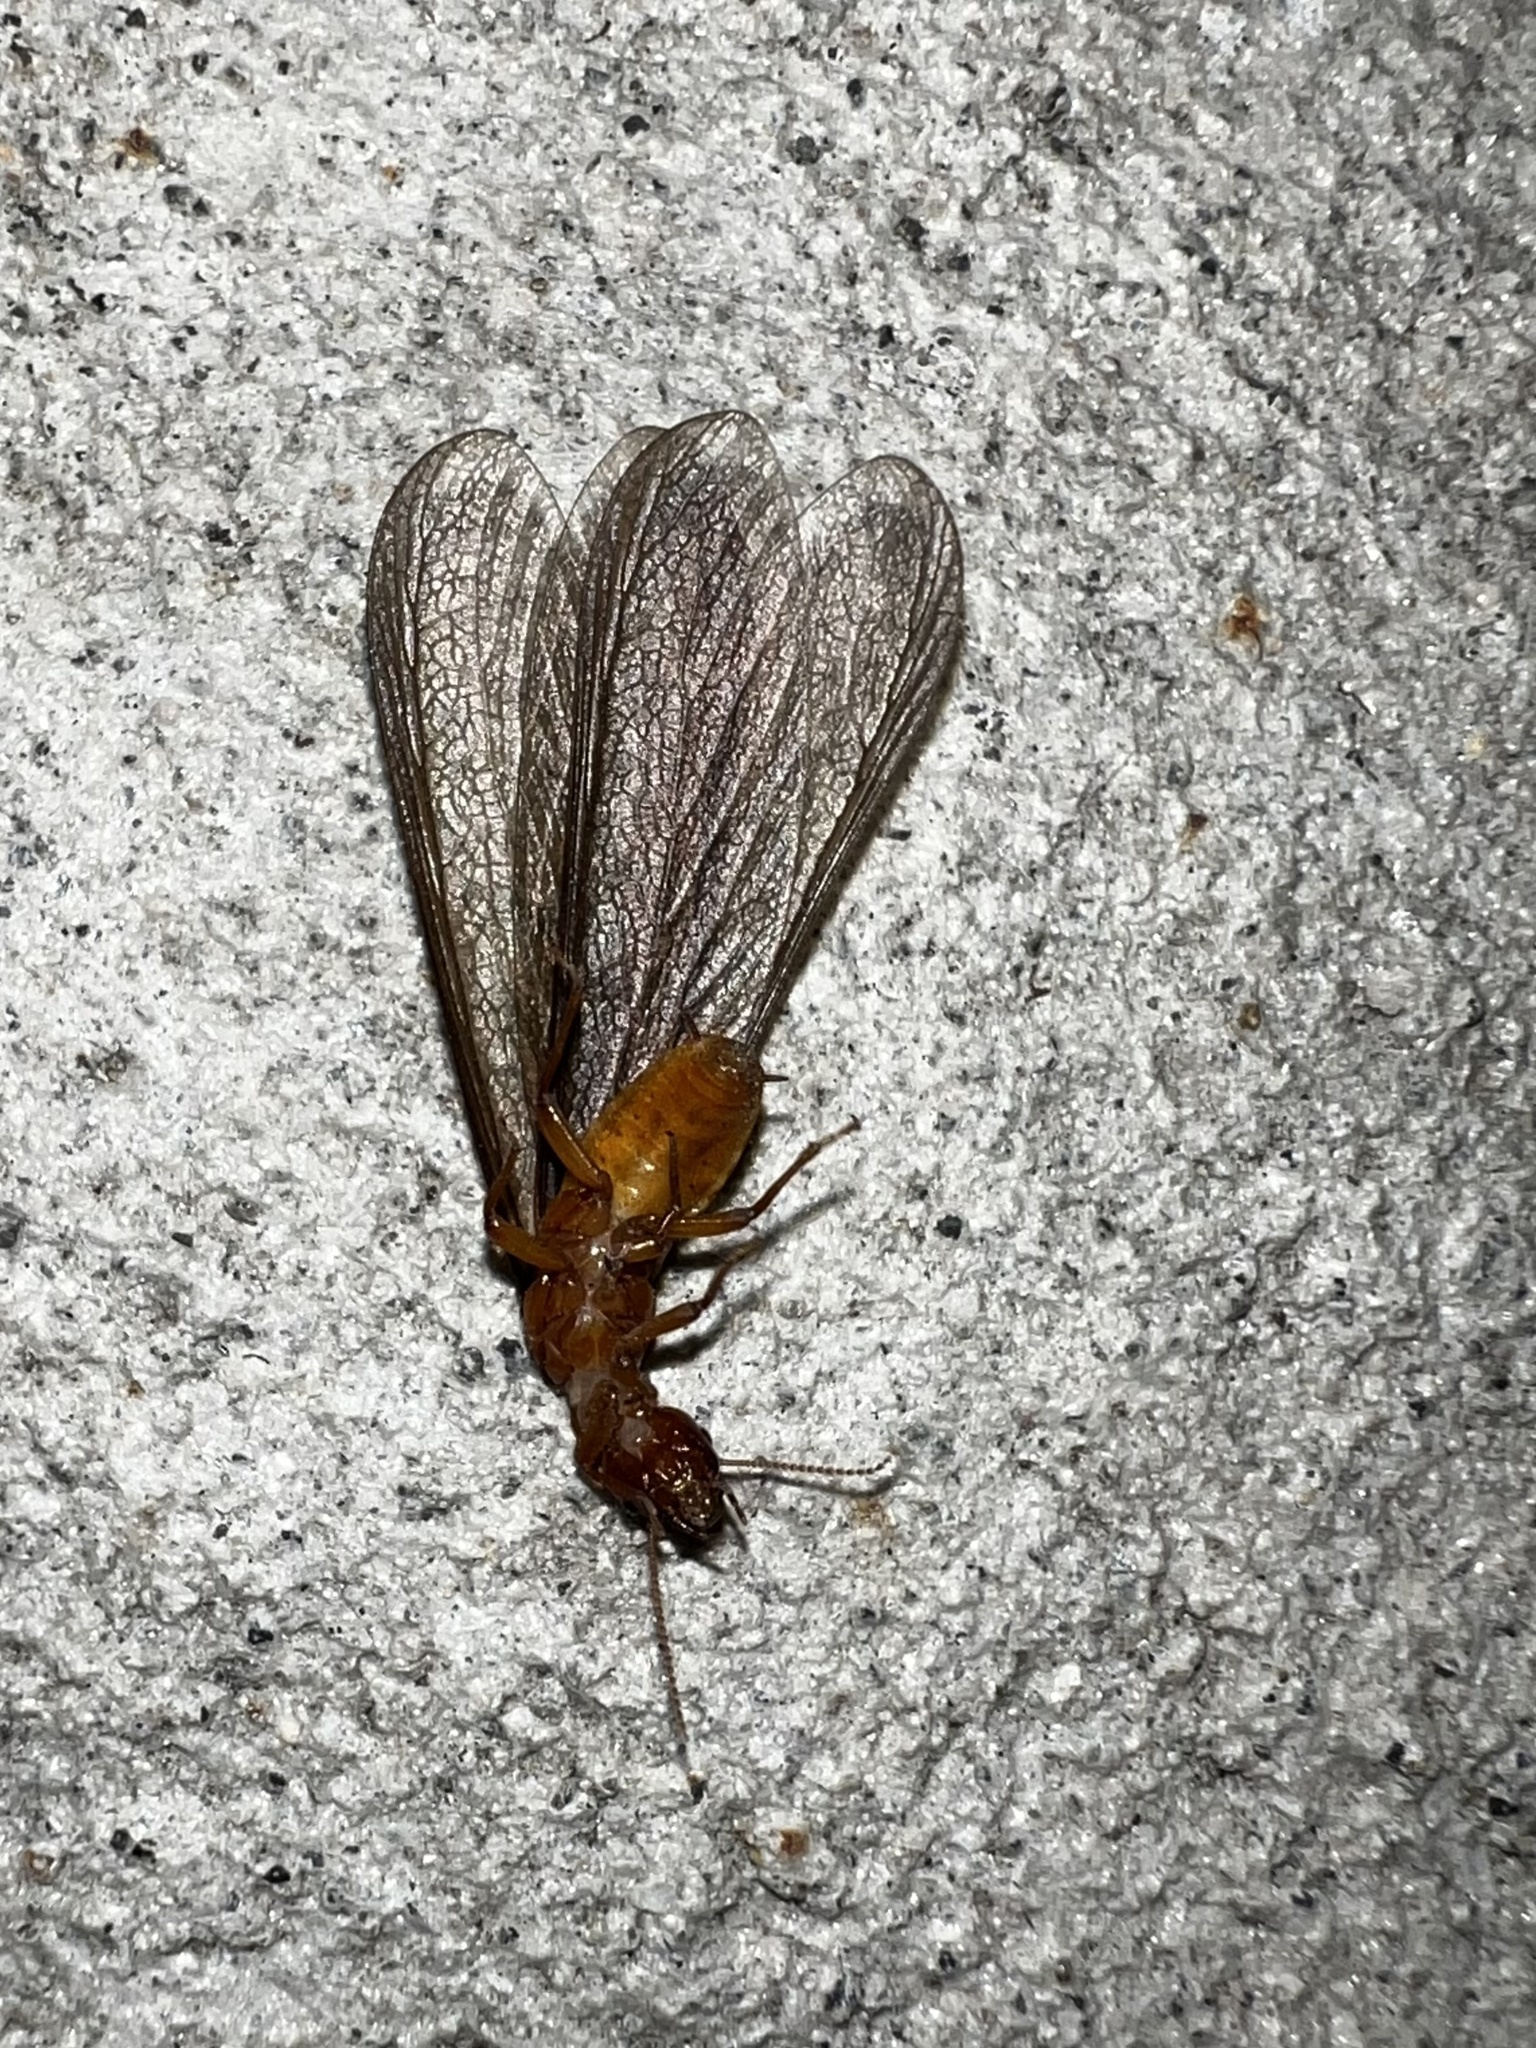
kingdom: Animalia
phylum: Arthropoda
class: Insecta
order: Blattodea
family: Archotermopsidae
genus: Zootermopsis
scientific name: Zootermopsis angusticollis
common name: Rottenwood termite
